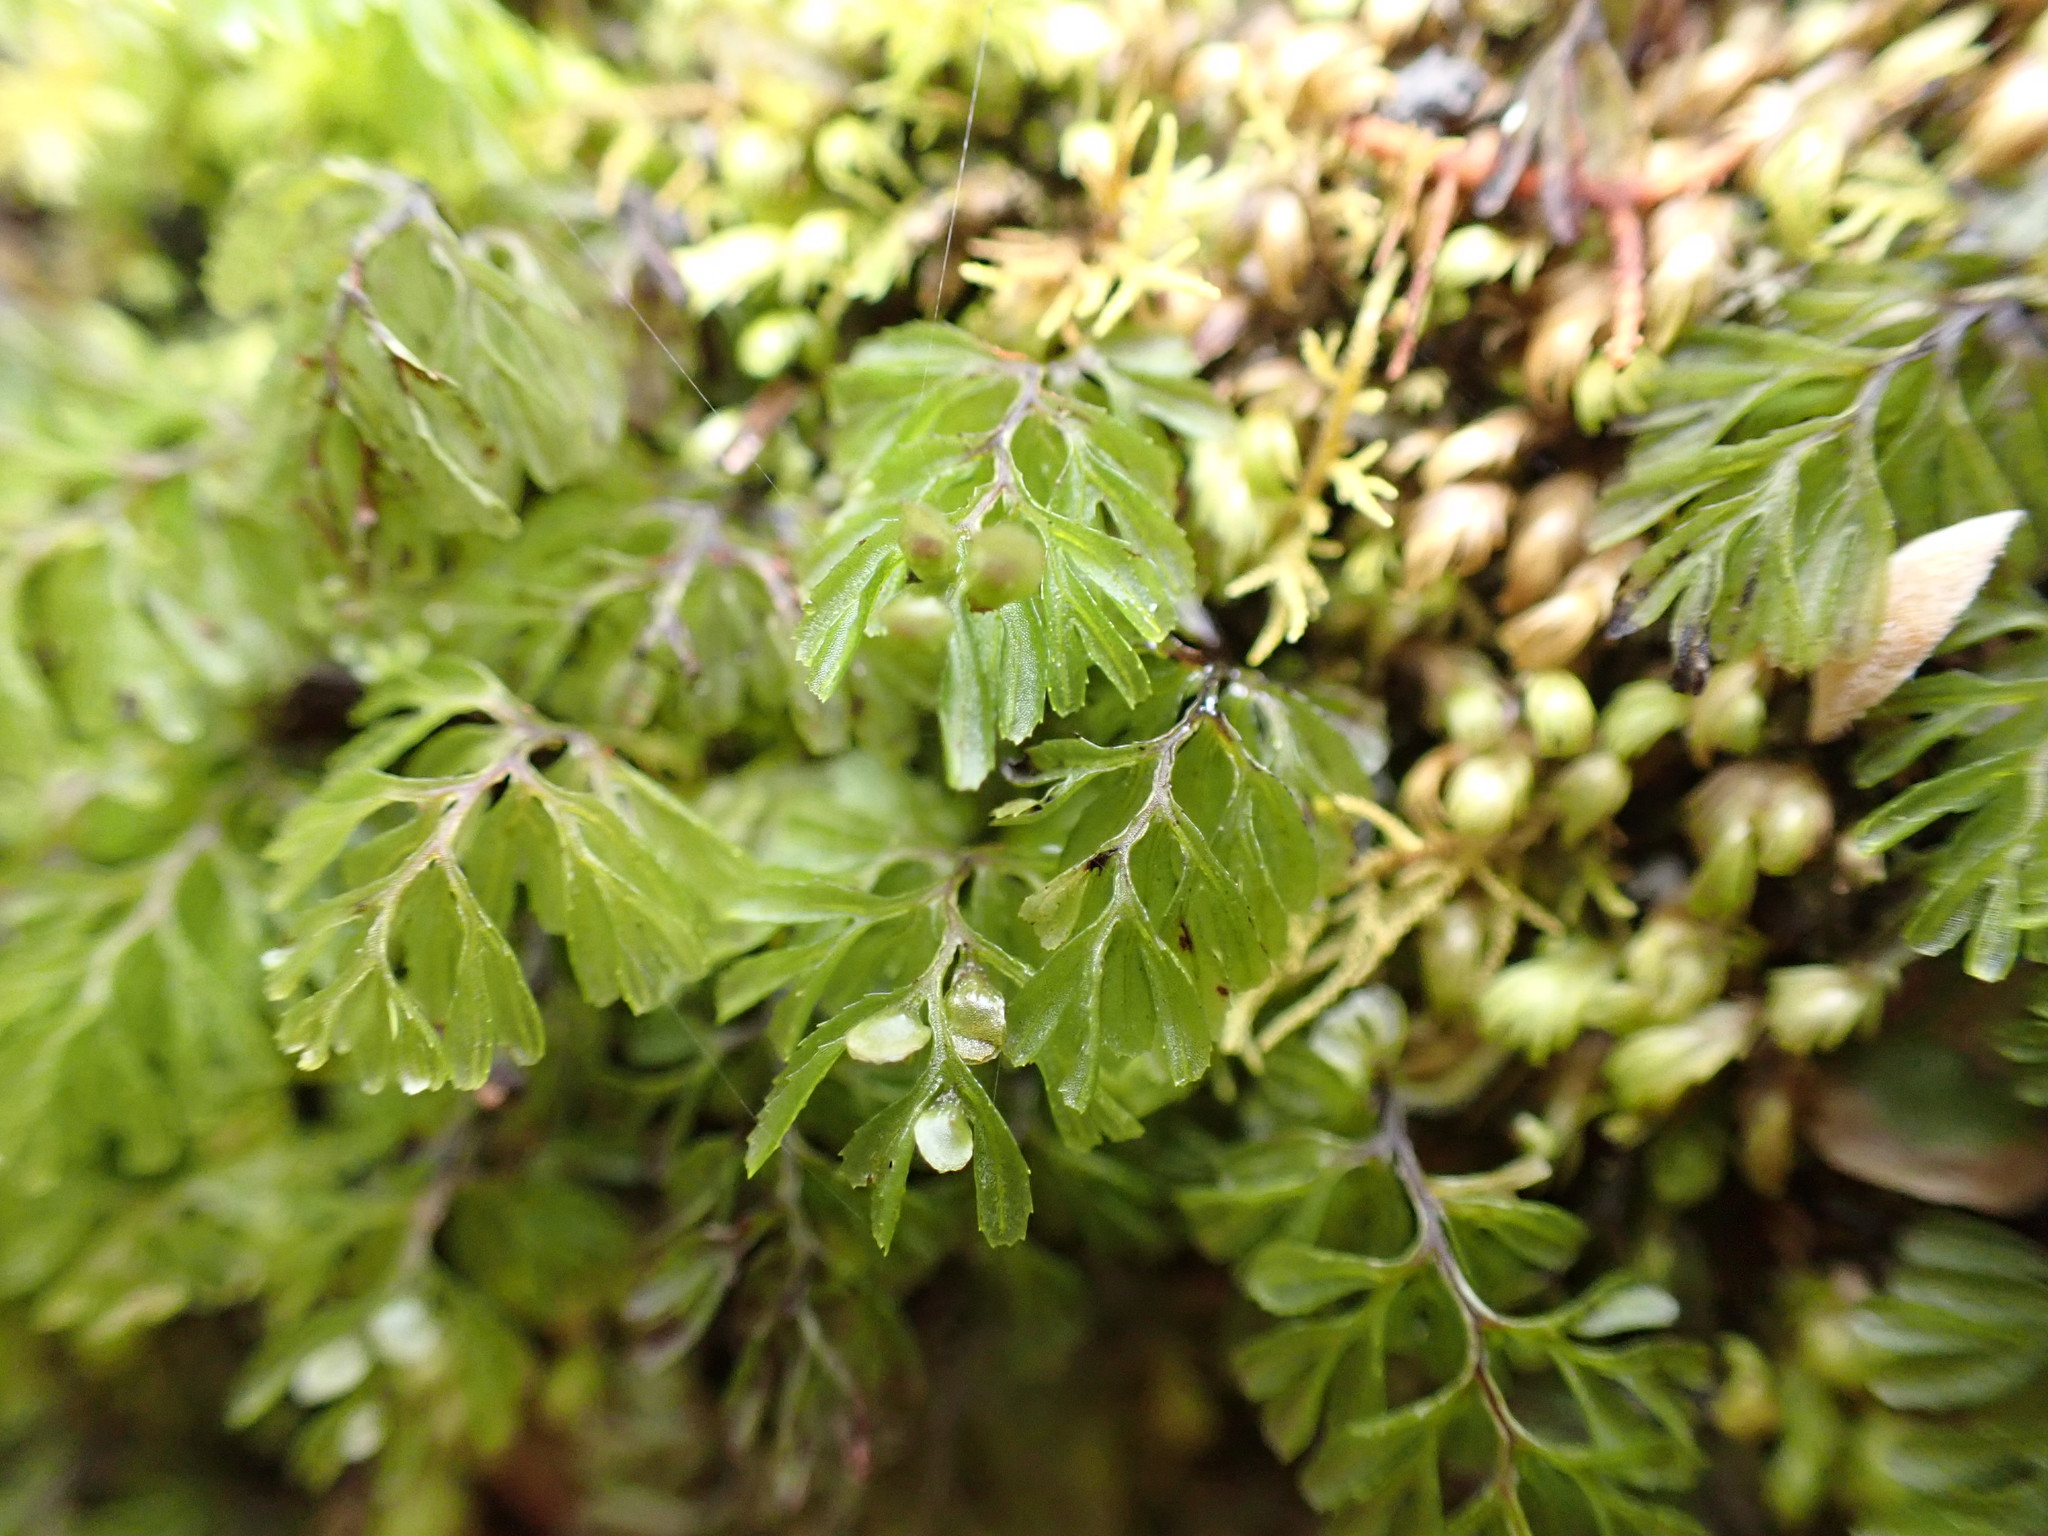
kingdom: Plantae
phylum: Tracheophyta
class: Polypodiopsida
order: Hymenophyllales
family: Hymenophyllaceae
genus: Hymenophyllum
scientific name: Hymenophyllum revolutum
